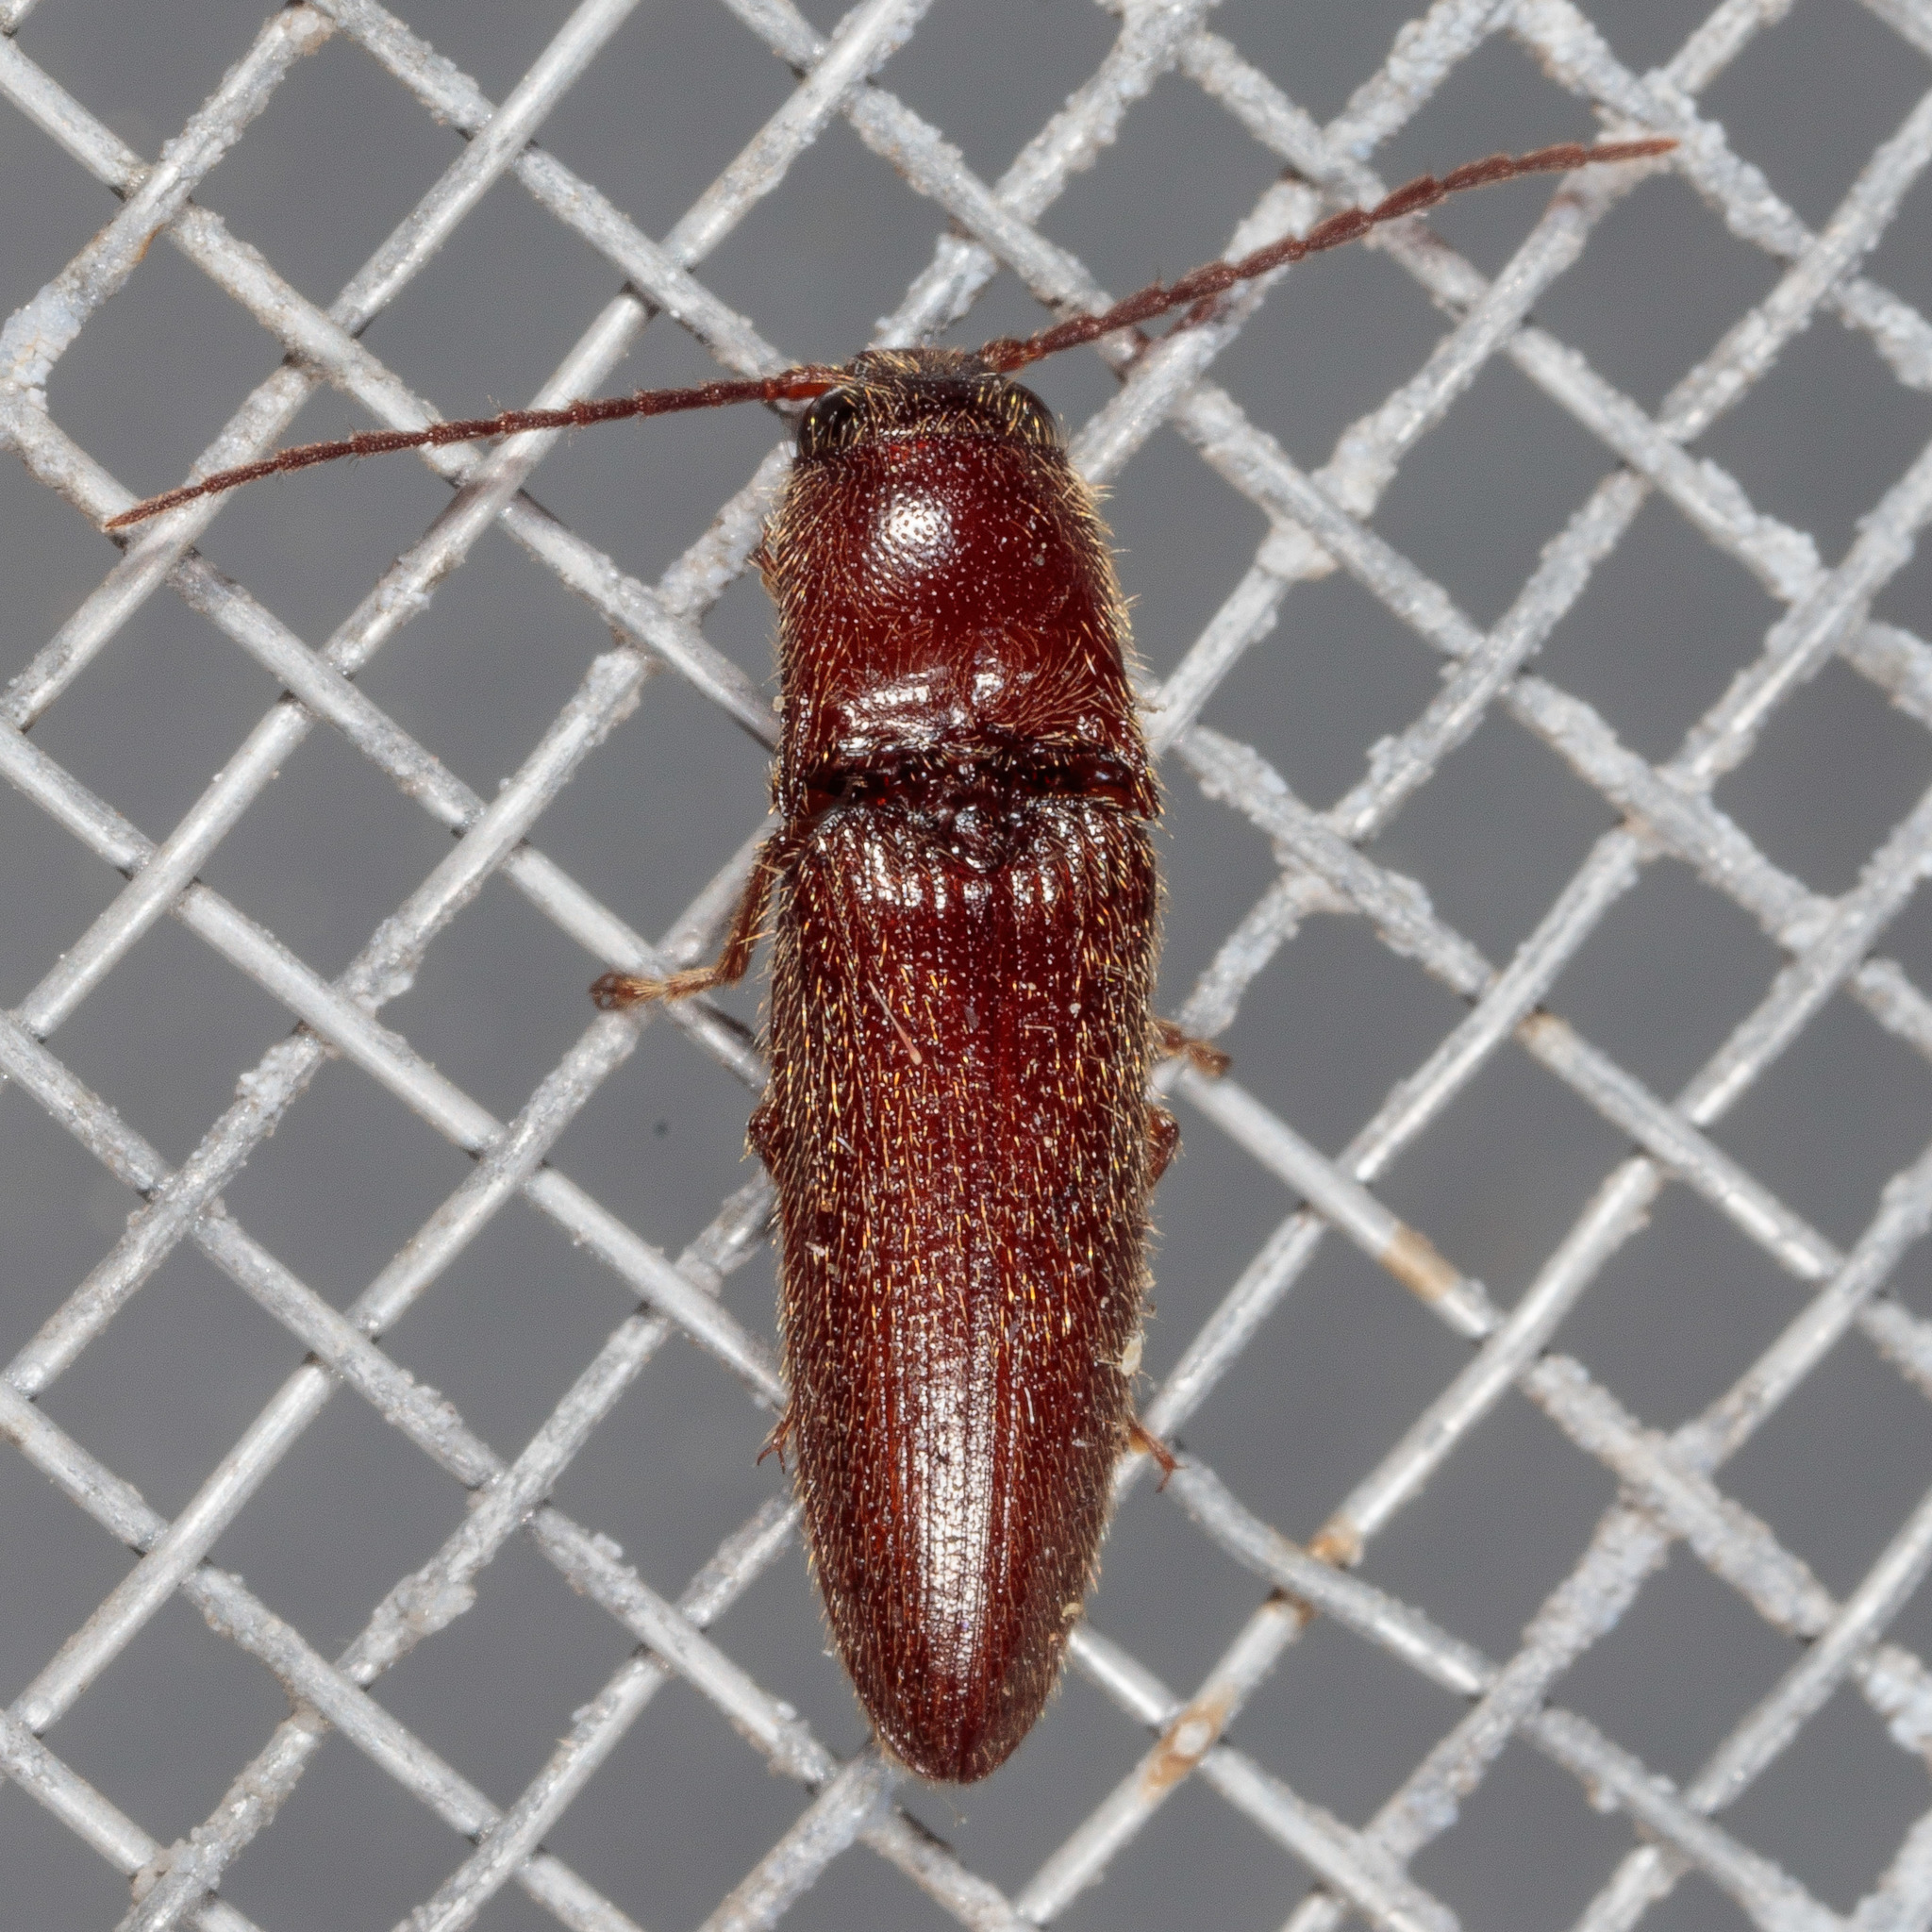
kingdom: Animalia
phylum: Arthropoda
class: Insecta
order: Coleoptera
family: Elateridae
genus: Dipropus
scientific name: Dipropus
